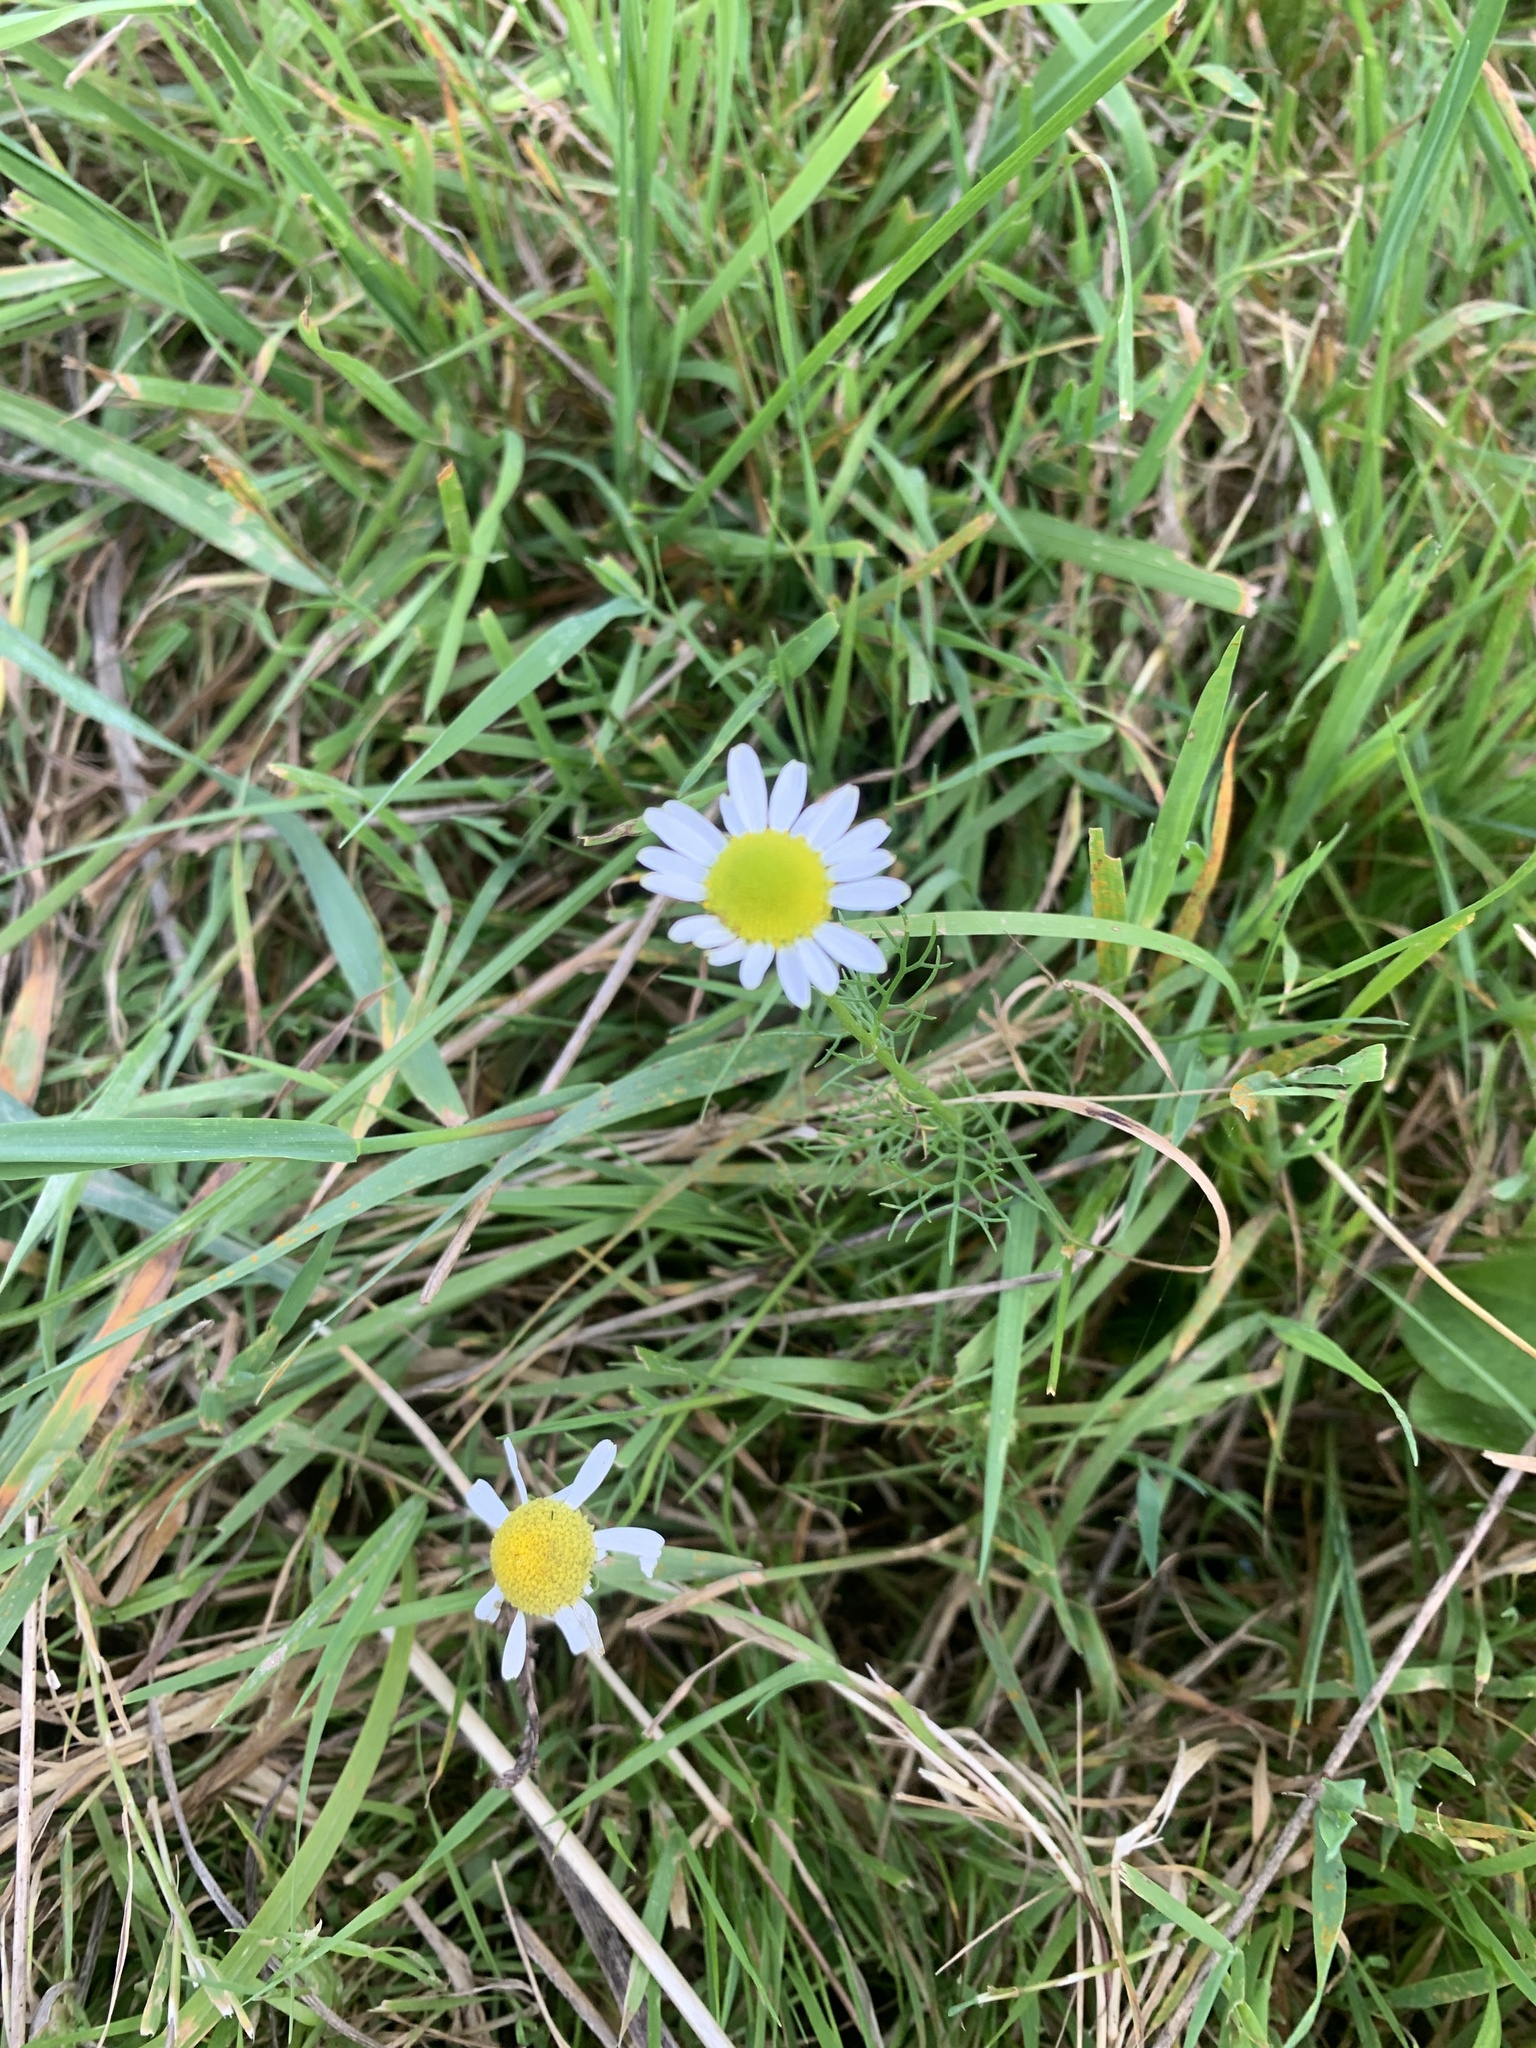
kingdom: Plantae
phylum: Tracheophyta
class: Magnoliopsida
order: Asterales
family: Asteraceae
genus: Bellis
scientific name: Bellis perennis
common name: Lawndaisy
